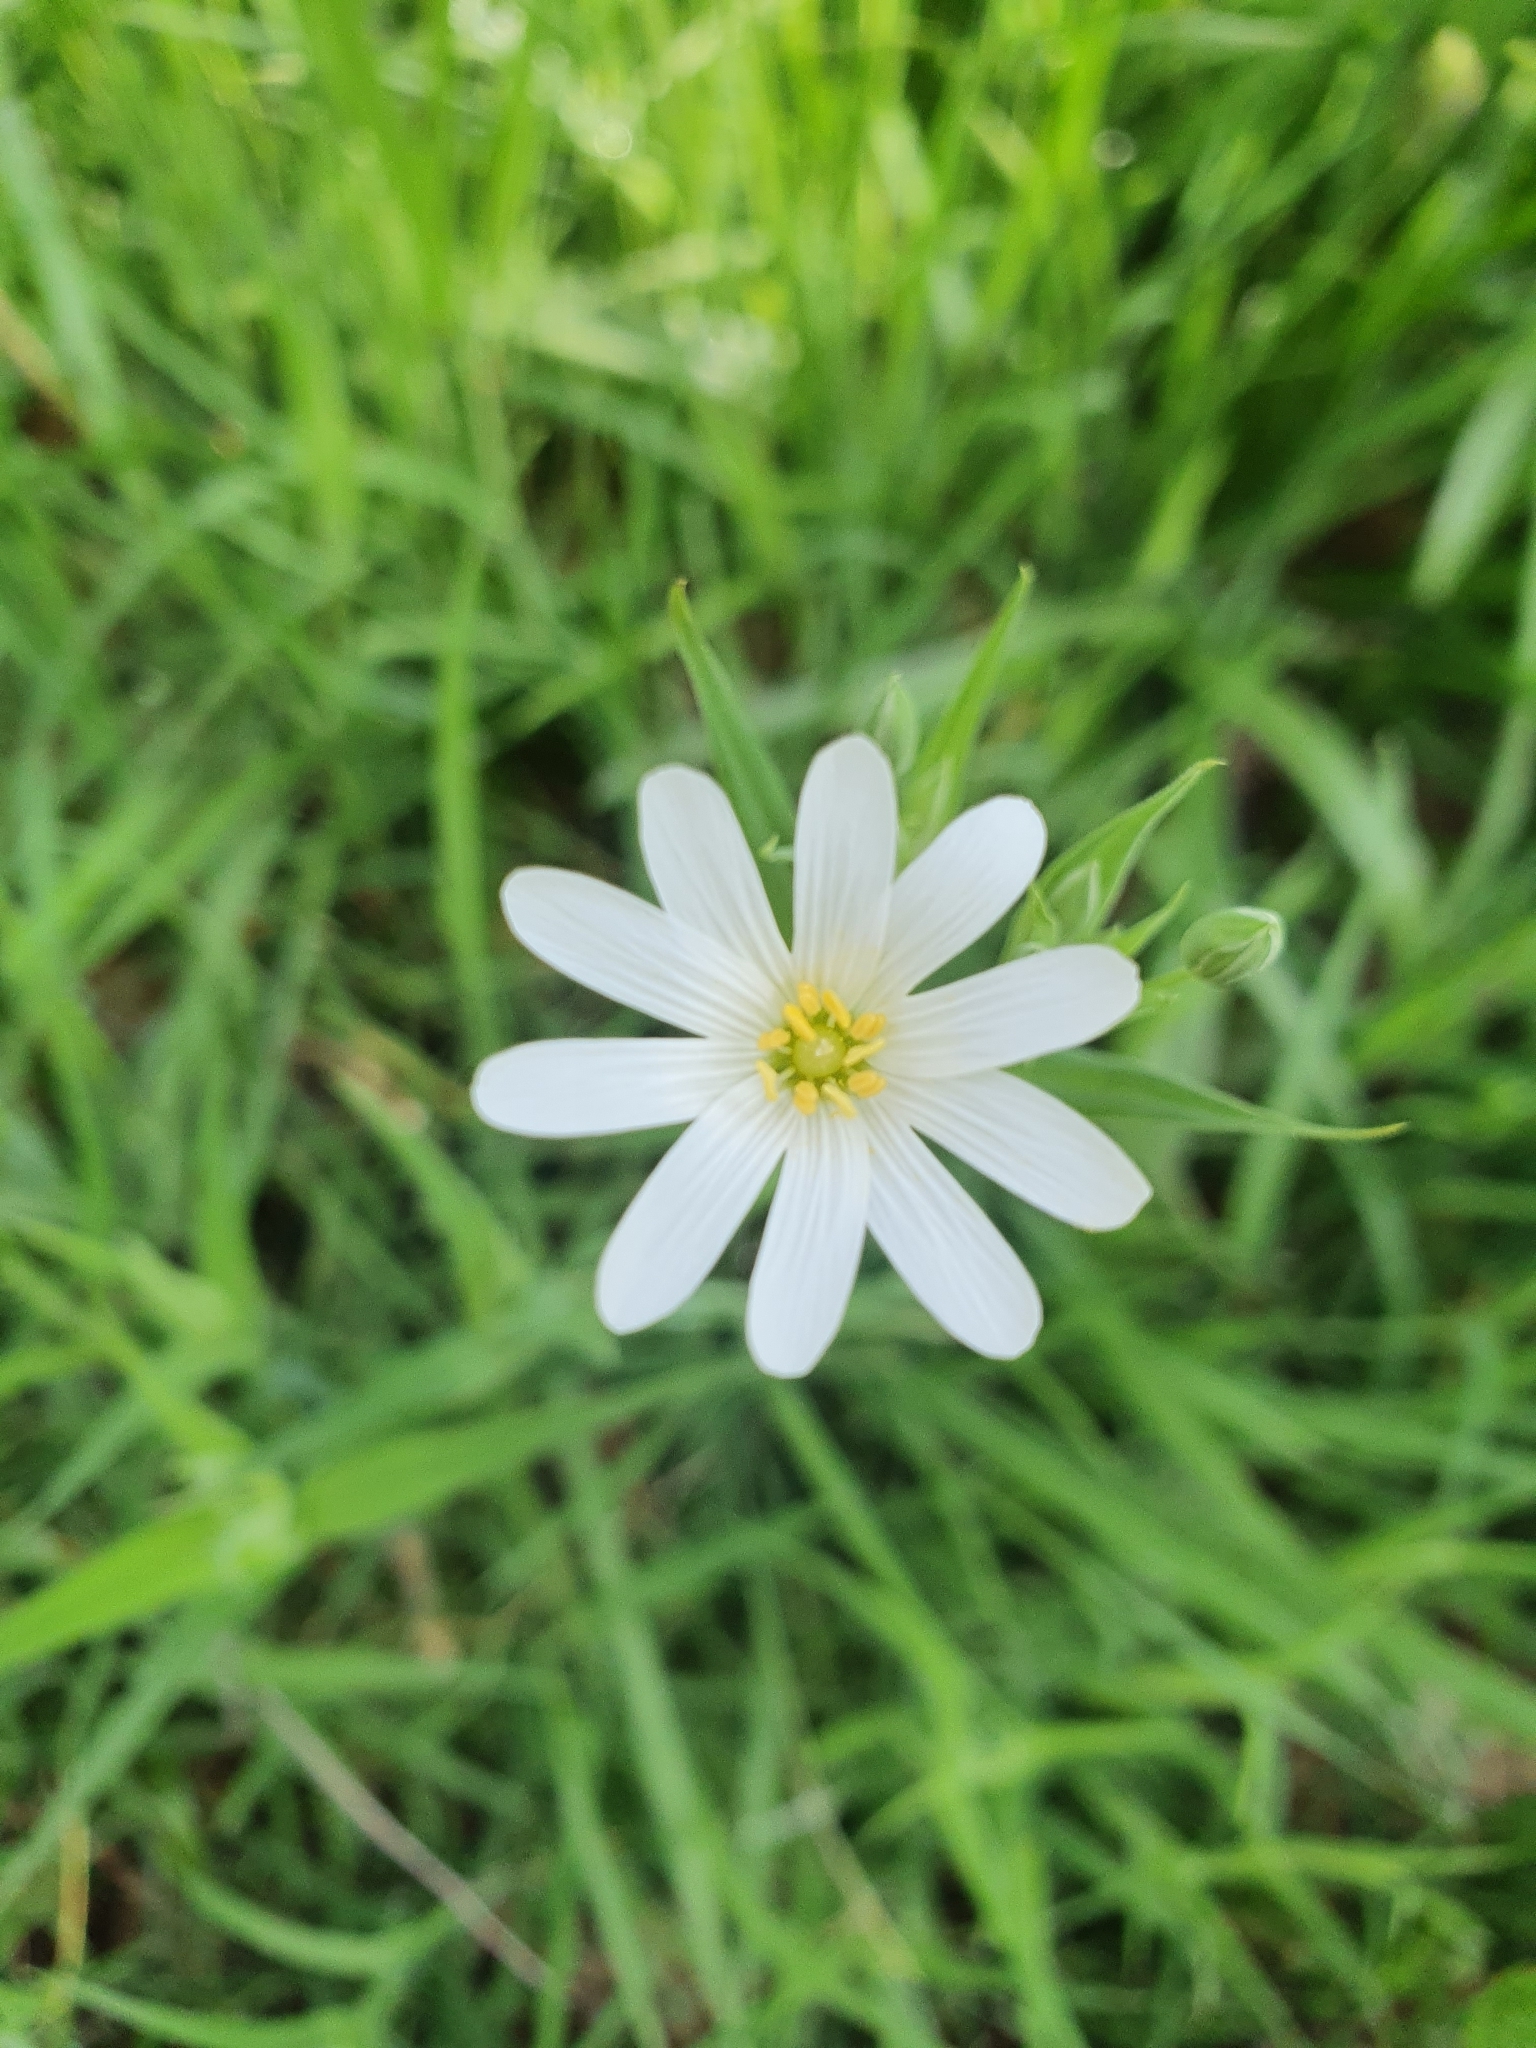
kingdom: Plantae
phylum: Tracheophyta
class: Magnoliopsida
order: Caryophyllales
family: Caryophyllaceae
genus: Rabelera
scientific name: Rabelera holostea
